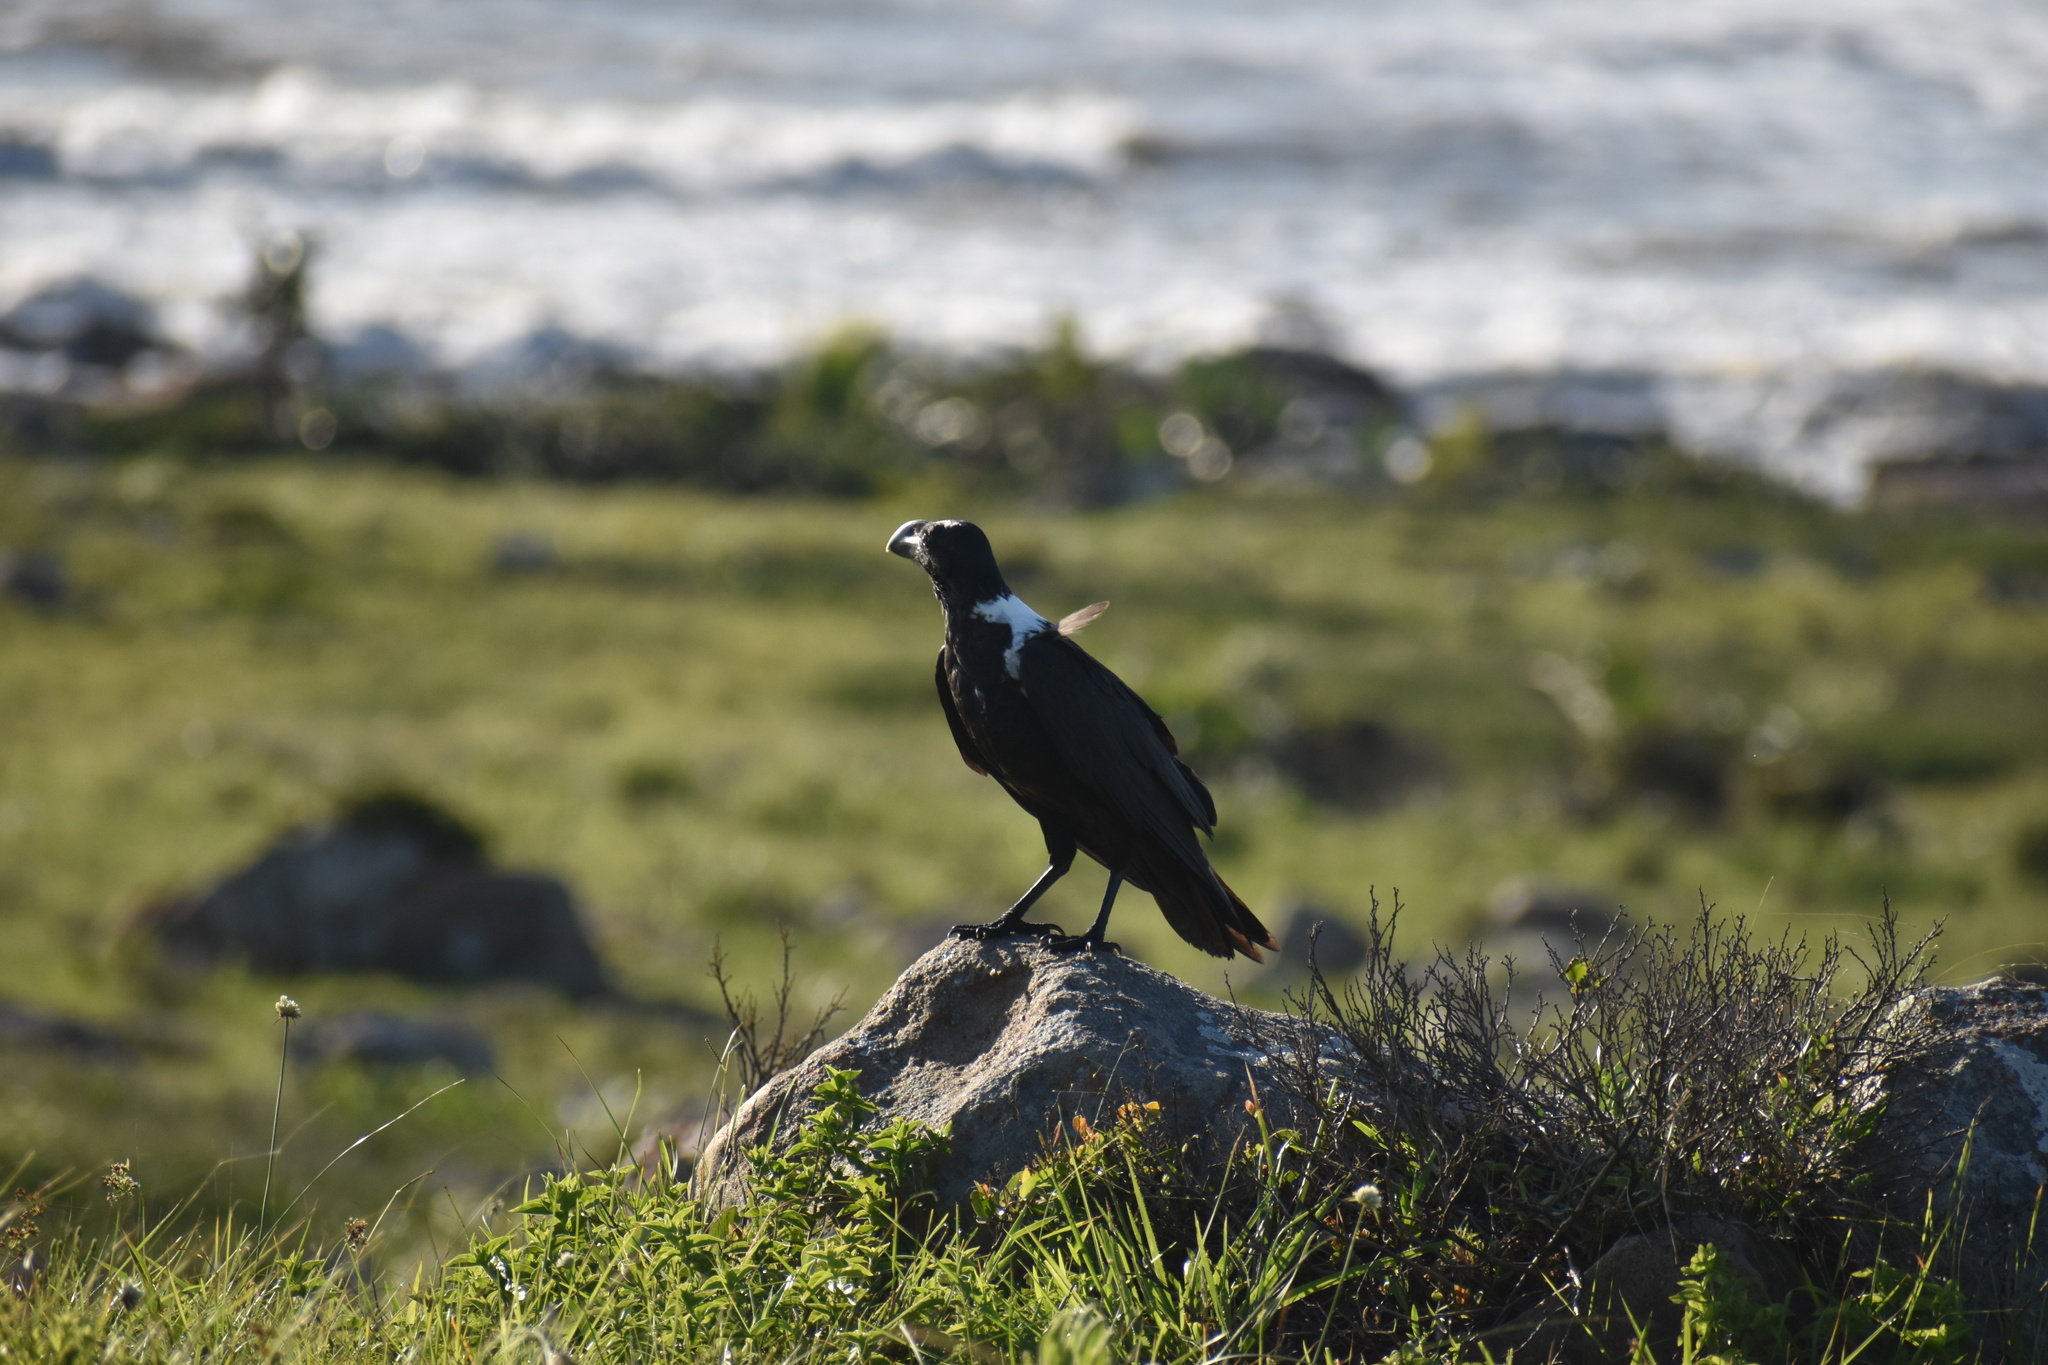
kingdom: Animalia
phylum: Chordata
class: Aves
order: Passeriformes
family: Corvidae
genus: Corvus
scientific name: Corvus albicollis
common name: White-necked raven
